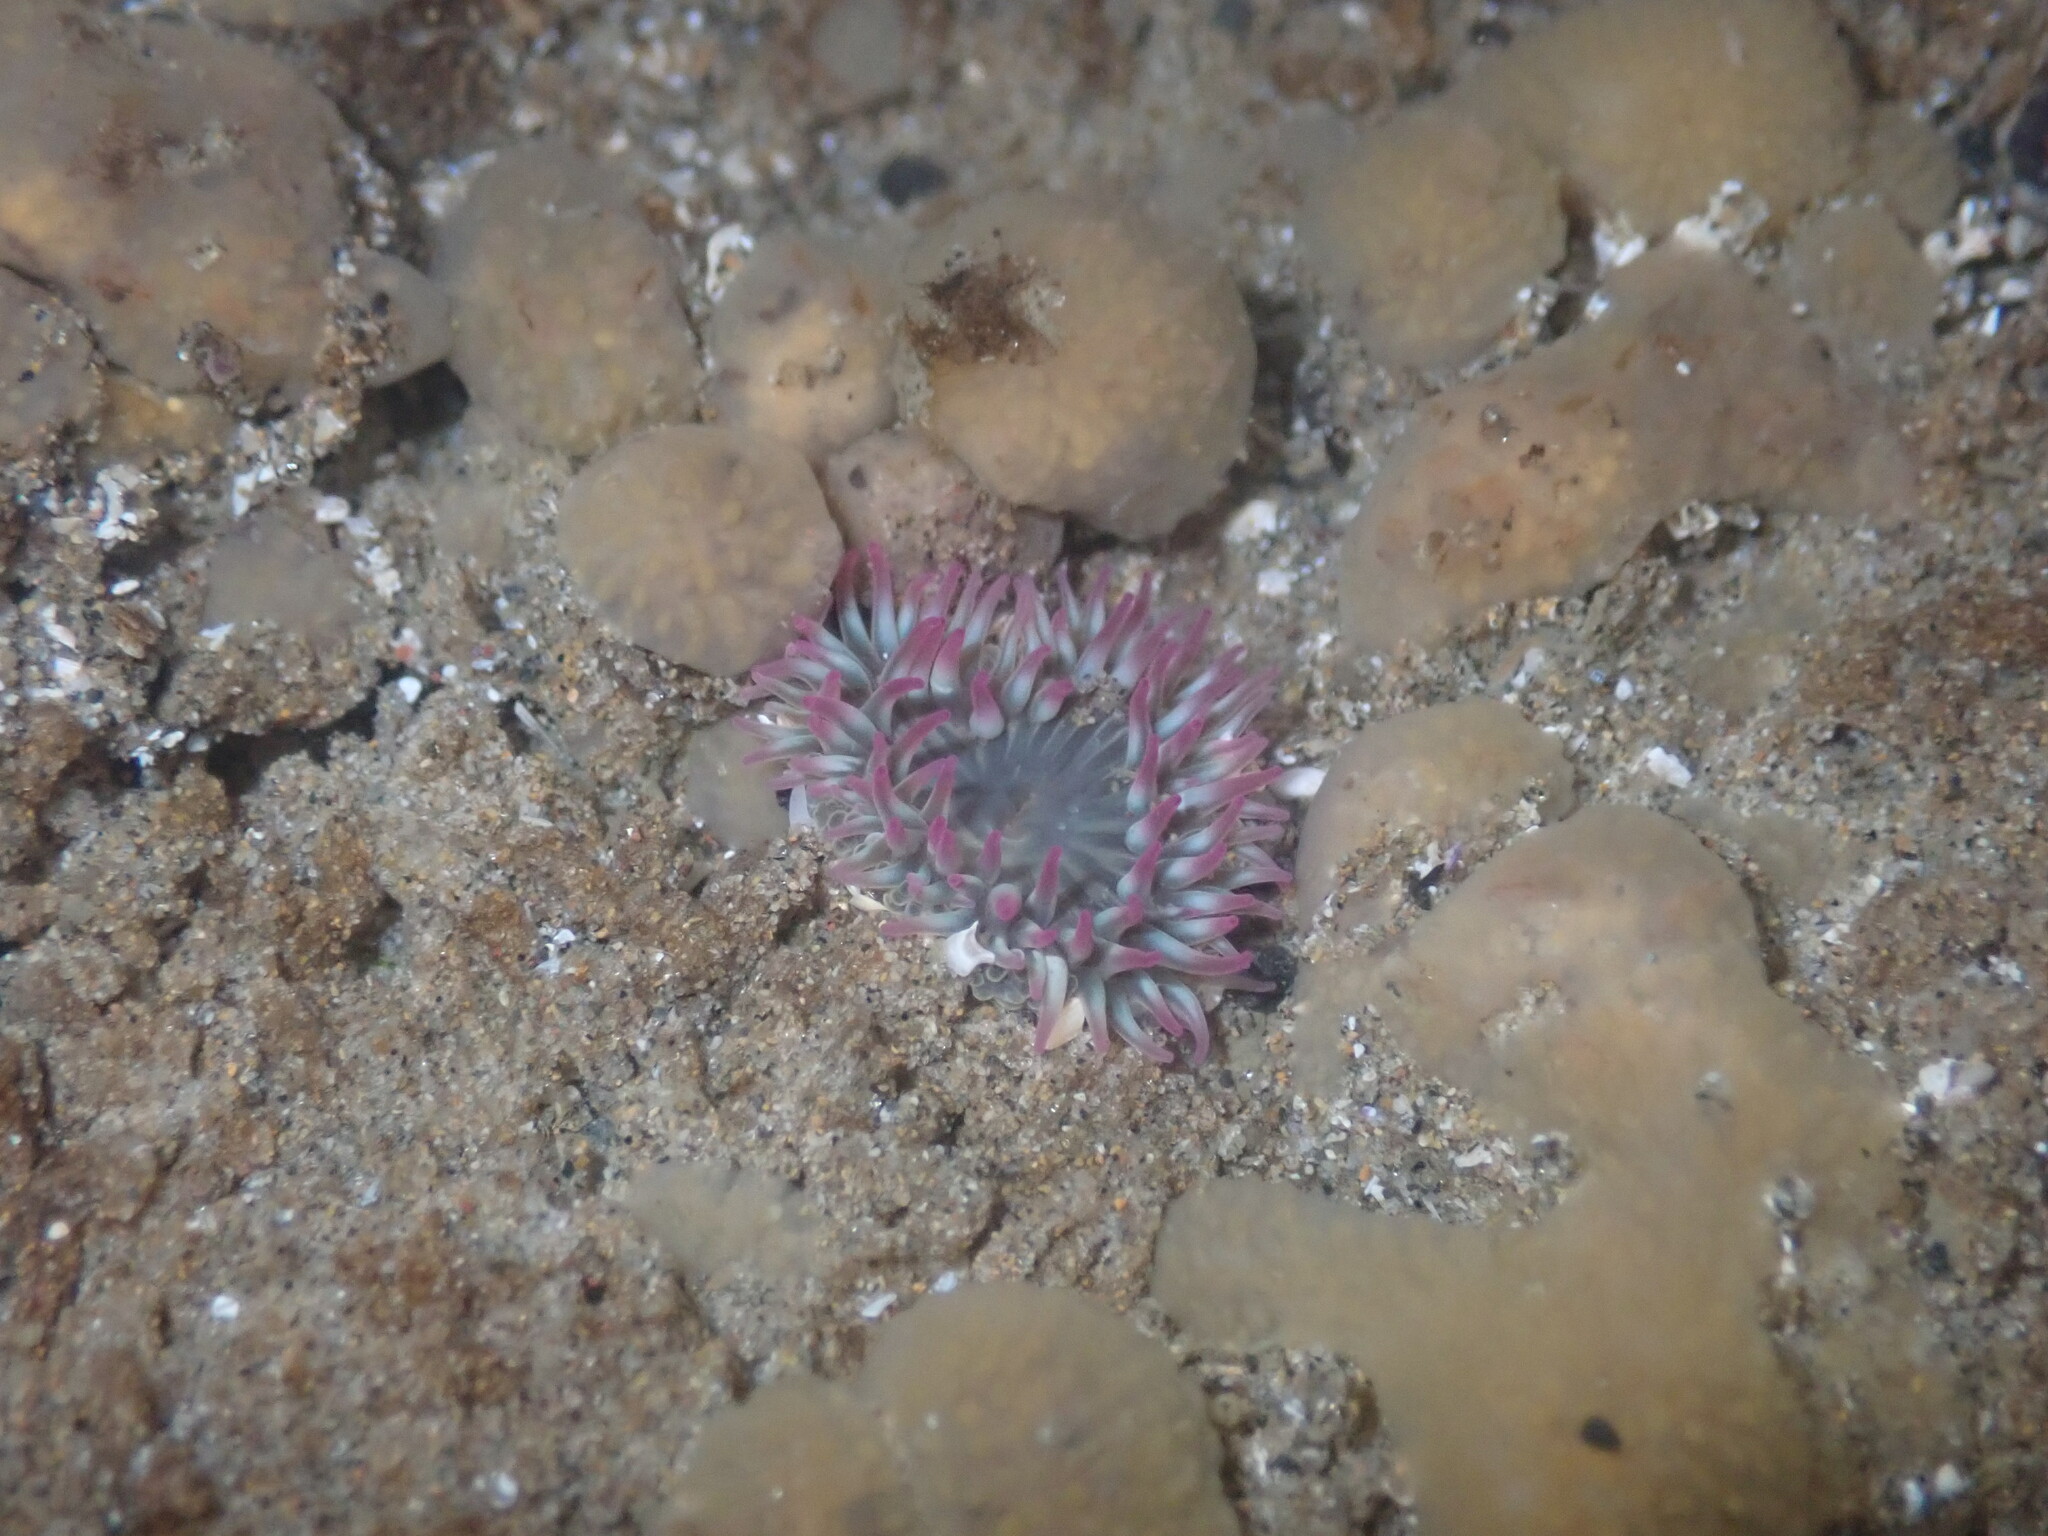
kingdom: Animalia
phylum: Cnidaria
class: Anthozoa
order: Actiniaria
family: Actiniidae
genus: Anthopleura
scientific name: Anthopleura elegantissima
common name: Clonal anemone
